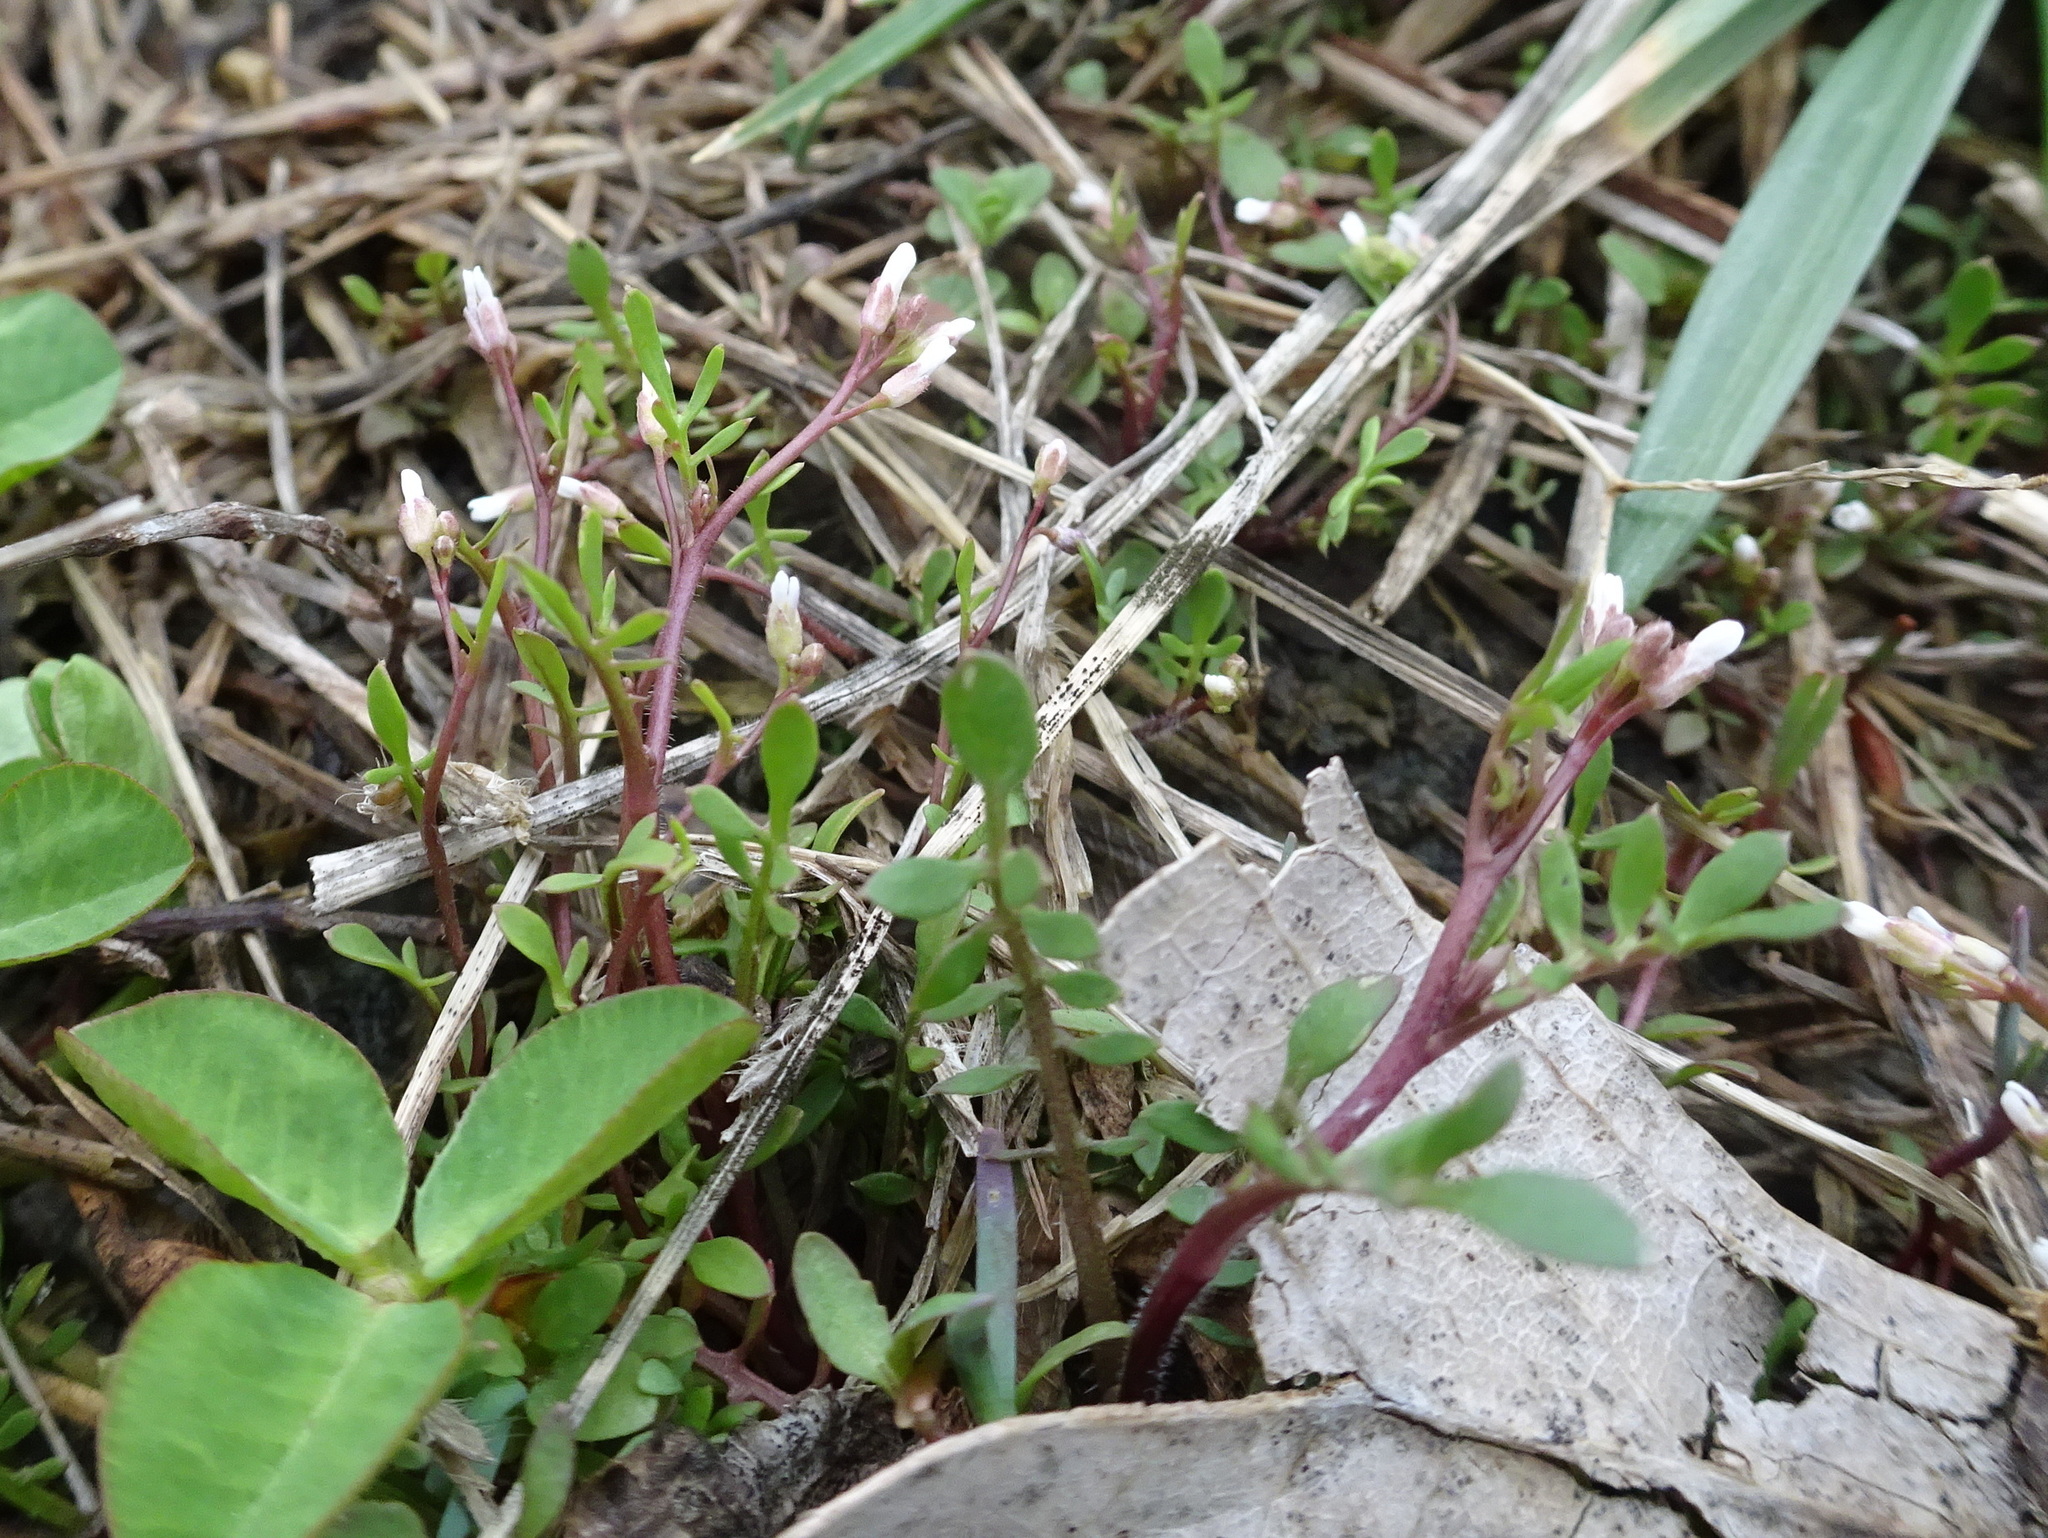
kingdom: Plantae
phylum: Tracheophyta
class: Magnoliopsida
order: Brassicales
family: Brassicaceae
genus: Planodes
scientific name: Planodes virginicum
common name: Virginia cress
